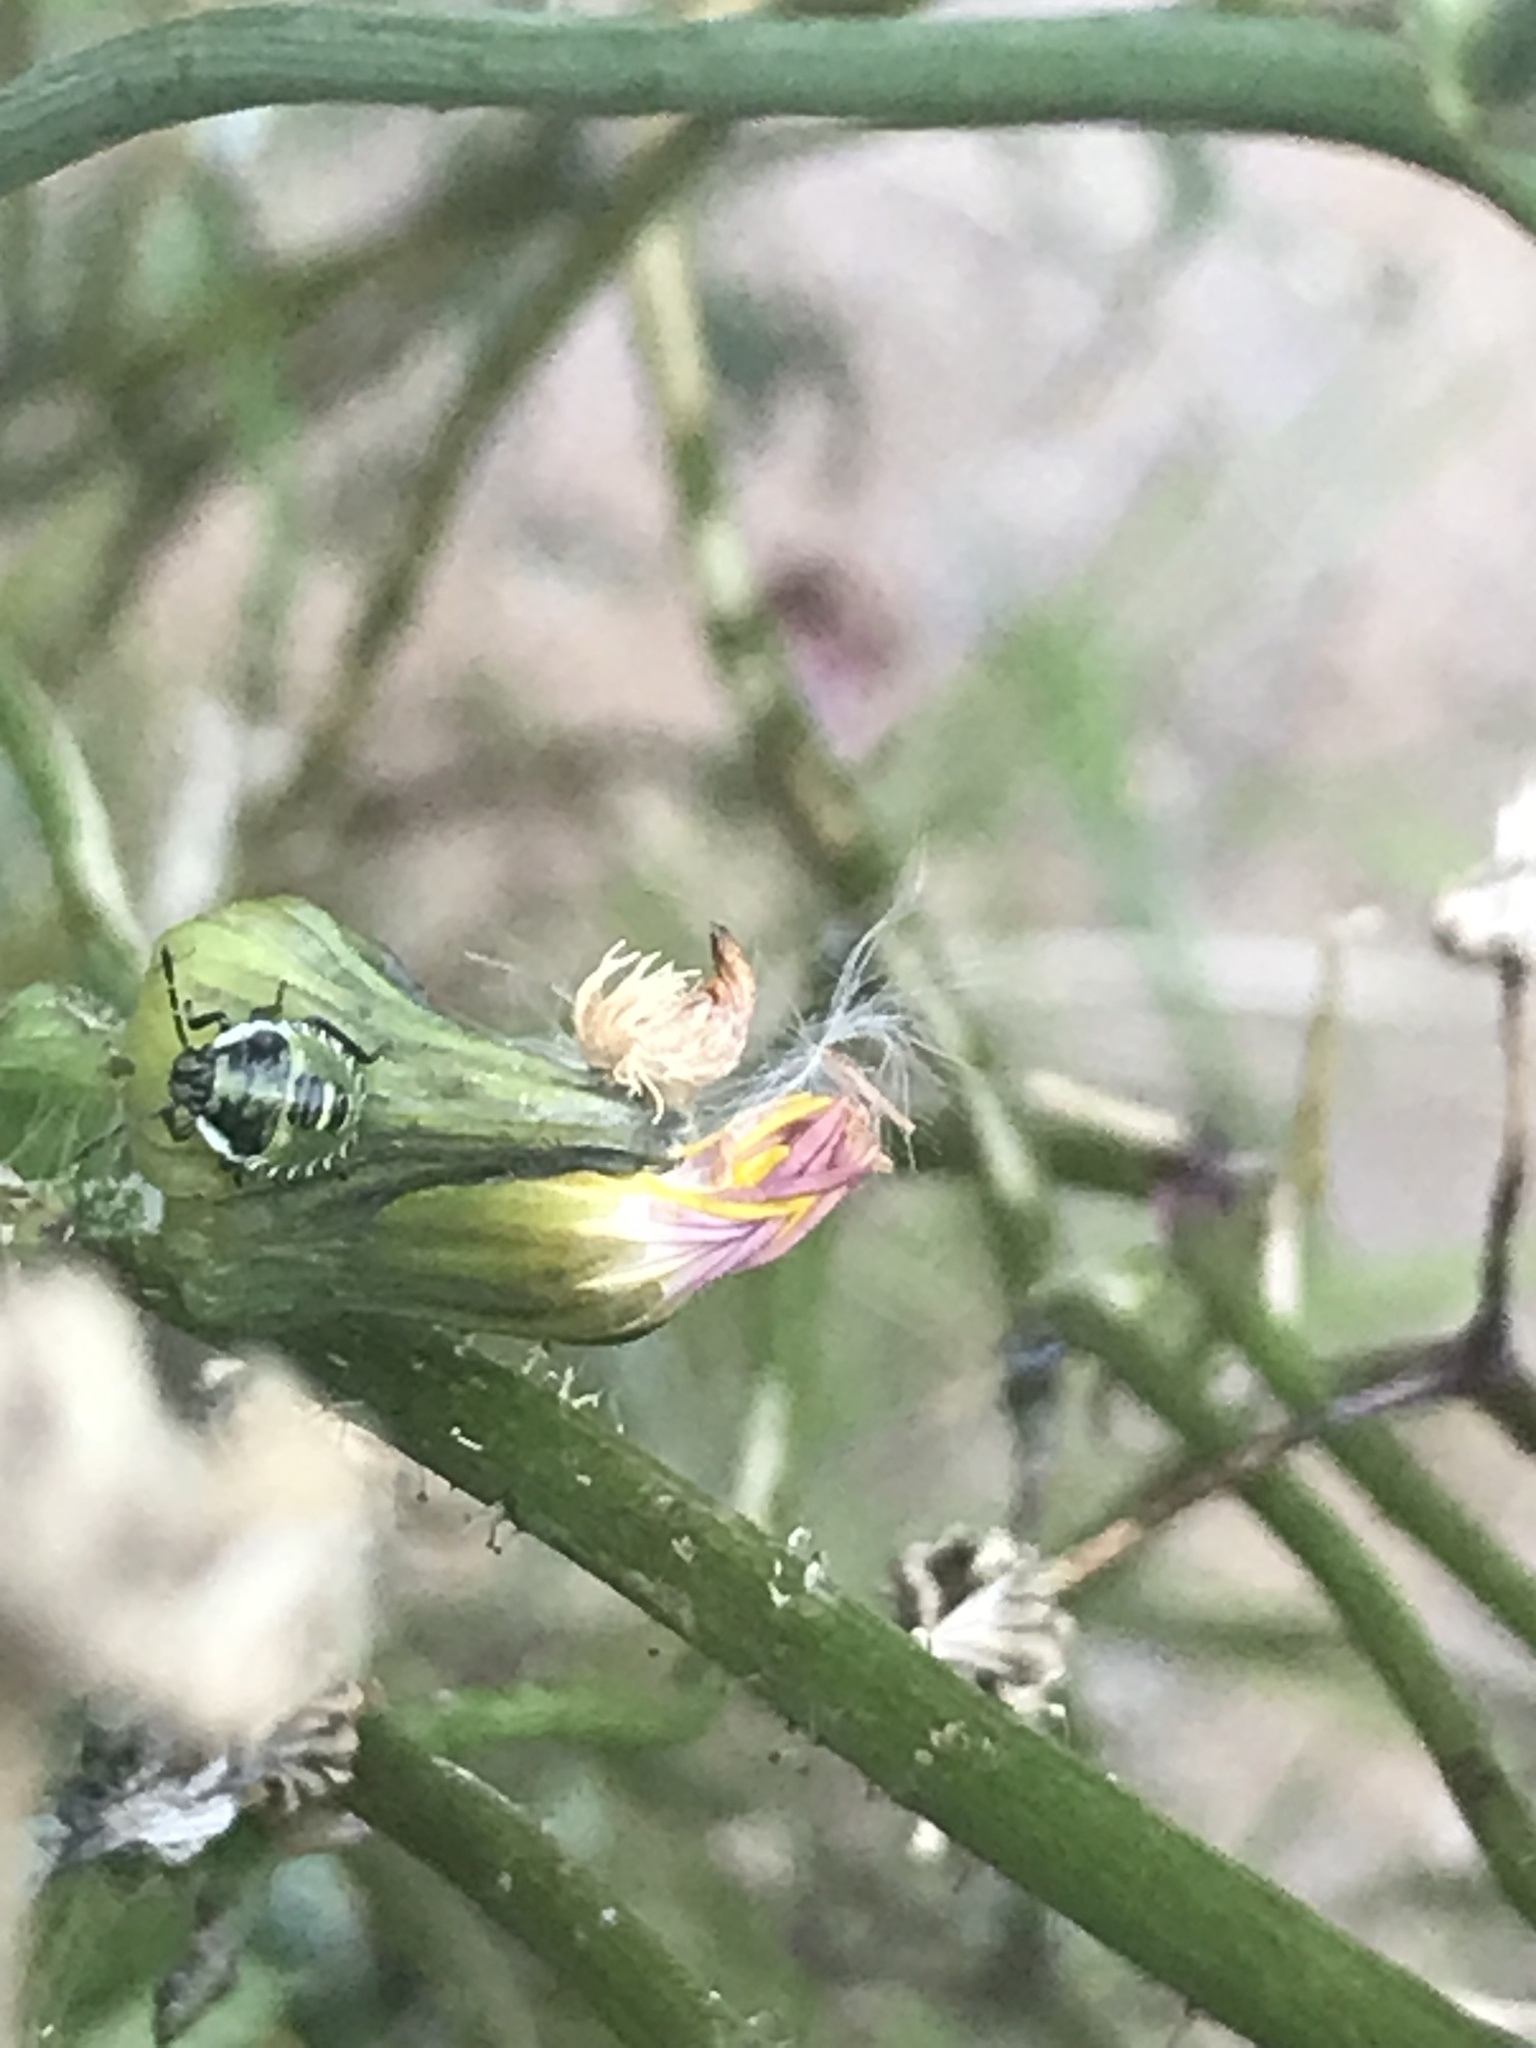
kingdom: Animalia
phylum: Arthropoda
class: Insecta
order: Hemiptera
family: Pentatomidae
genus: Palomena
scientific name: Palomena prasina
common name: Green shieldbug
